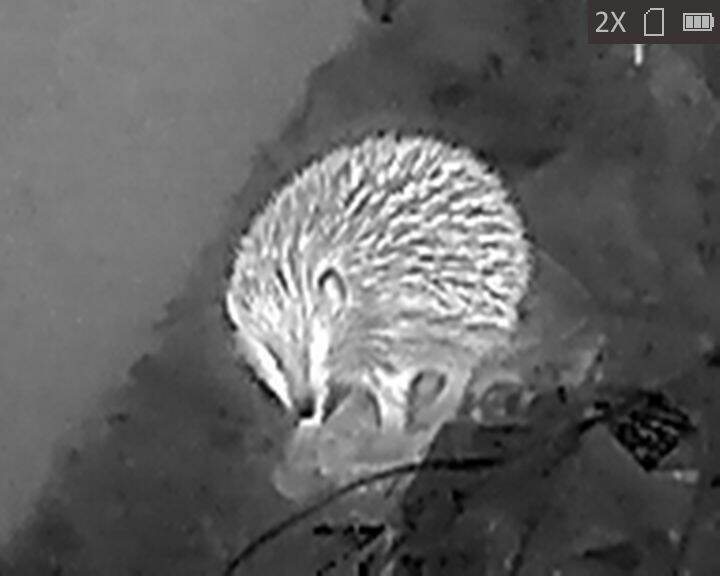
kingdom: Animalia
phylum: Chordata
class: Mammalia
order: Erinaceomorpha
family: Erinaceidae
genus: Erinaceus
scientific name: Erinaceus roumanicus
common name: Northern white-breasted hedgehog
